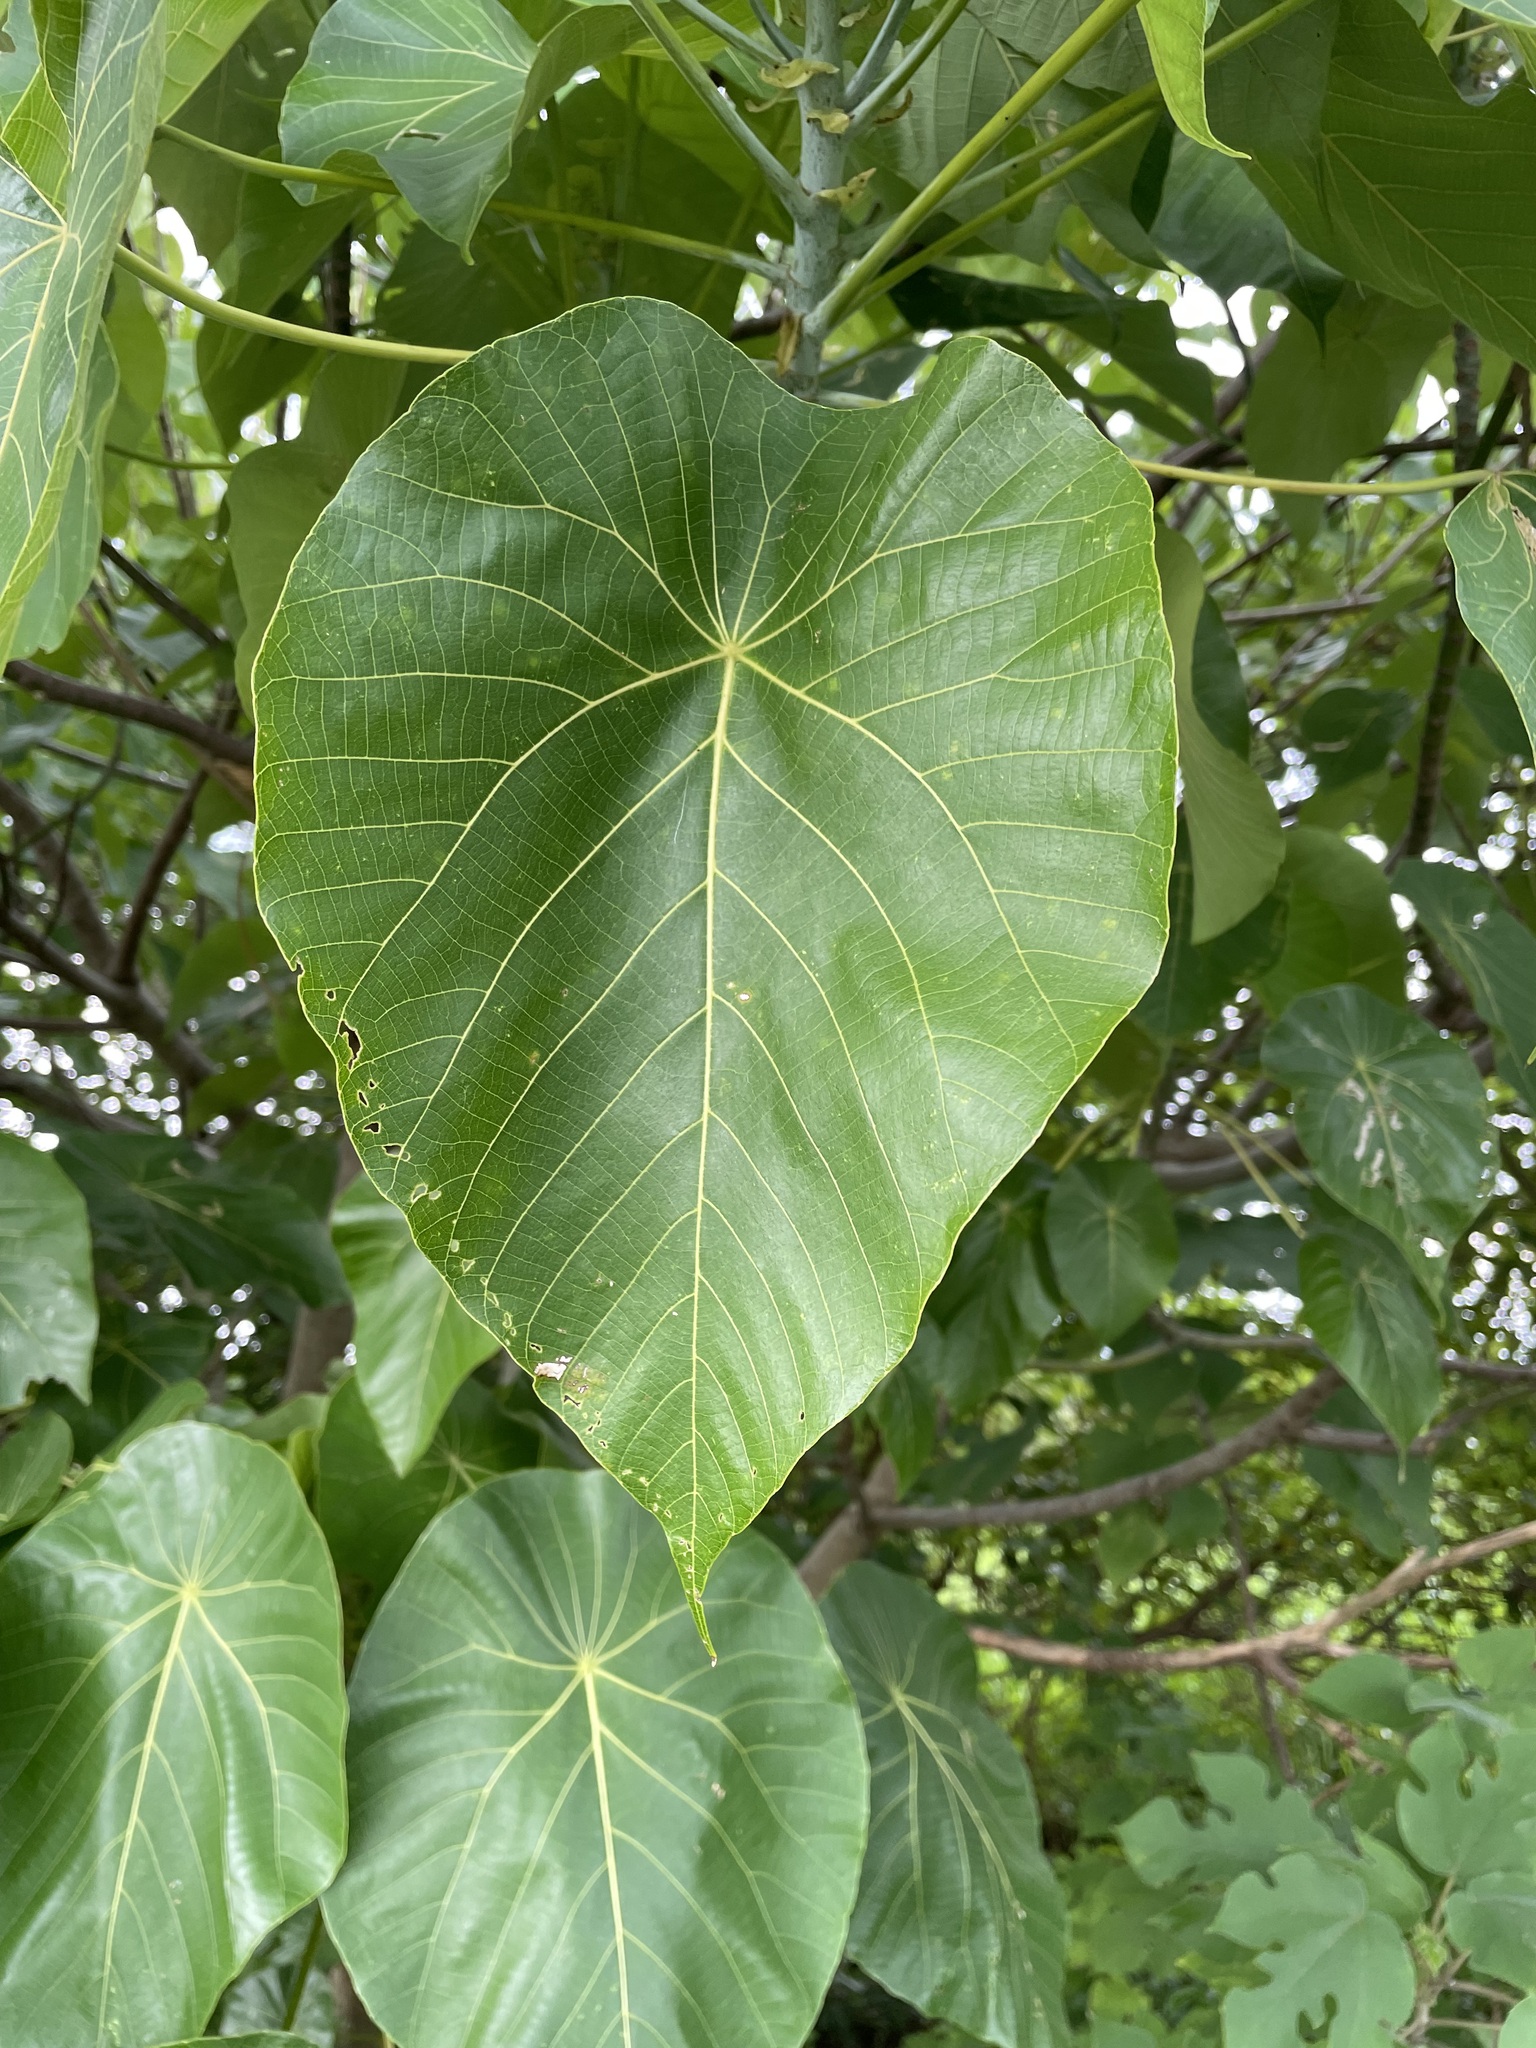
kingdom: Plantae
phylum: Tracheophyta
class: Magnoliopsida
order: Malpighiales
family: Euphorbiaceae
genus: Macaranga
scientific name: Macaranga tanarius
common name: Parasol leaf tree
